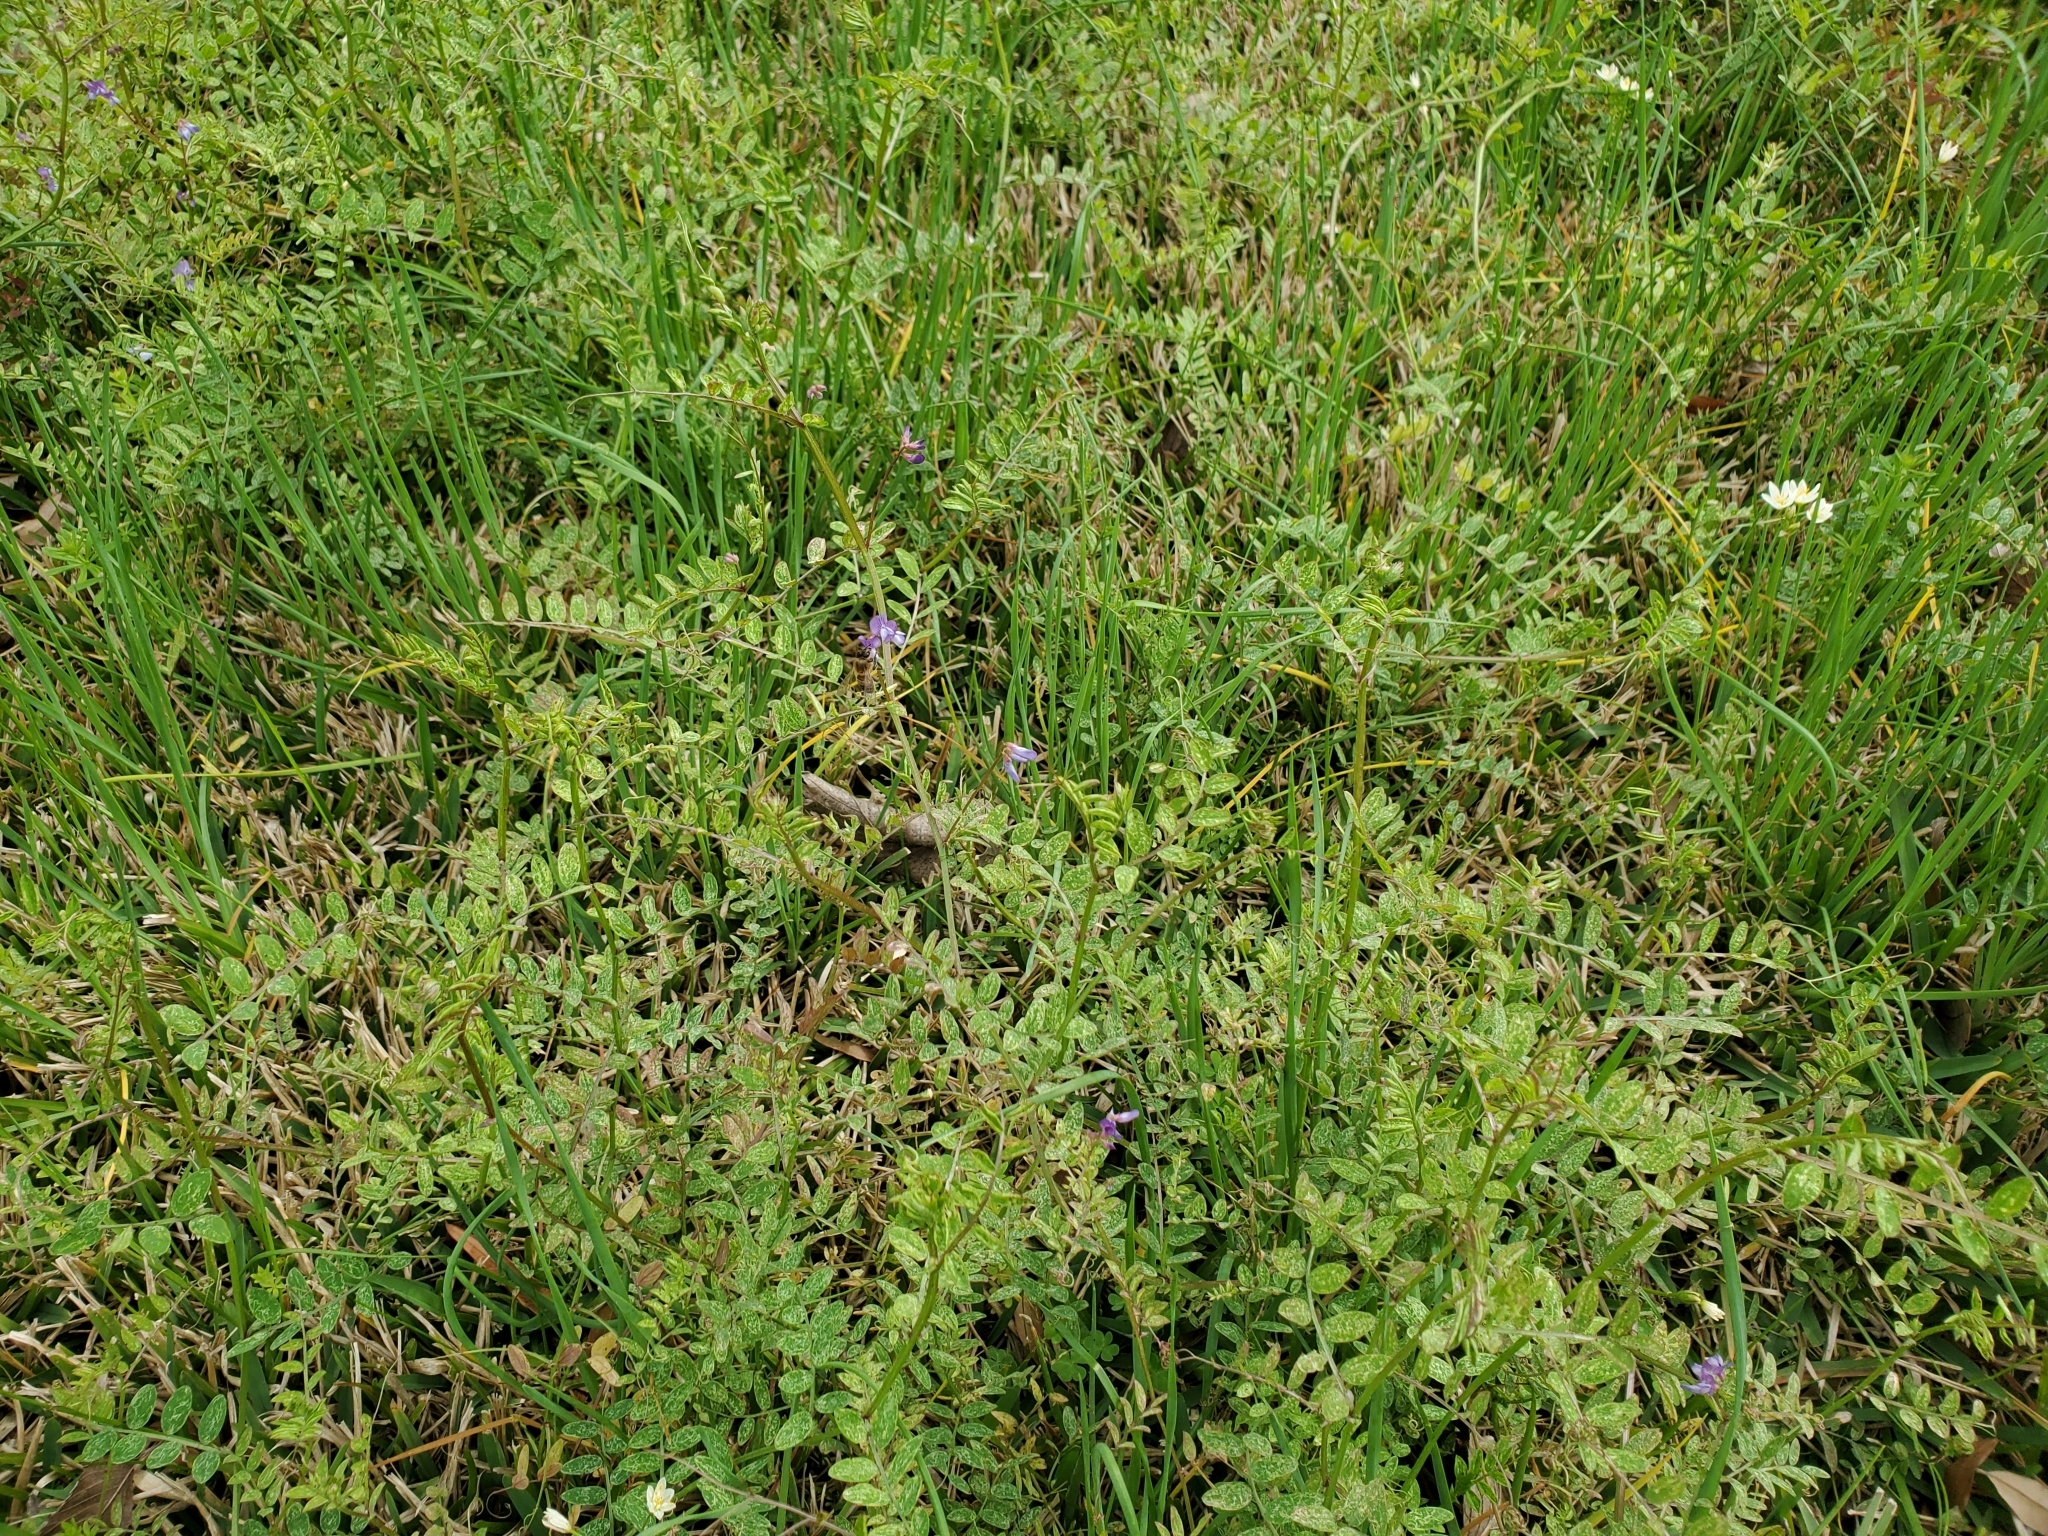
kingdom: Plantae
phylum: Tracheophyta
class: Magnoliopsida
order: Fabales
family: Fabaceae
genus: Vicia
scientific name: Vicia ludoviciana
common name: Louisiana vetch
